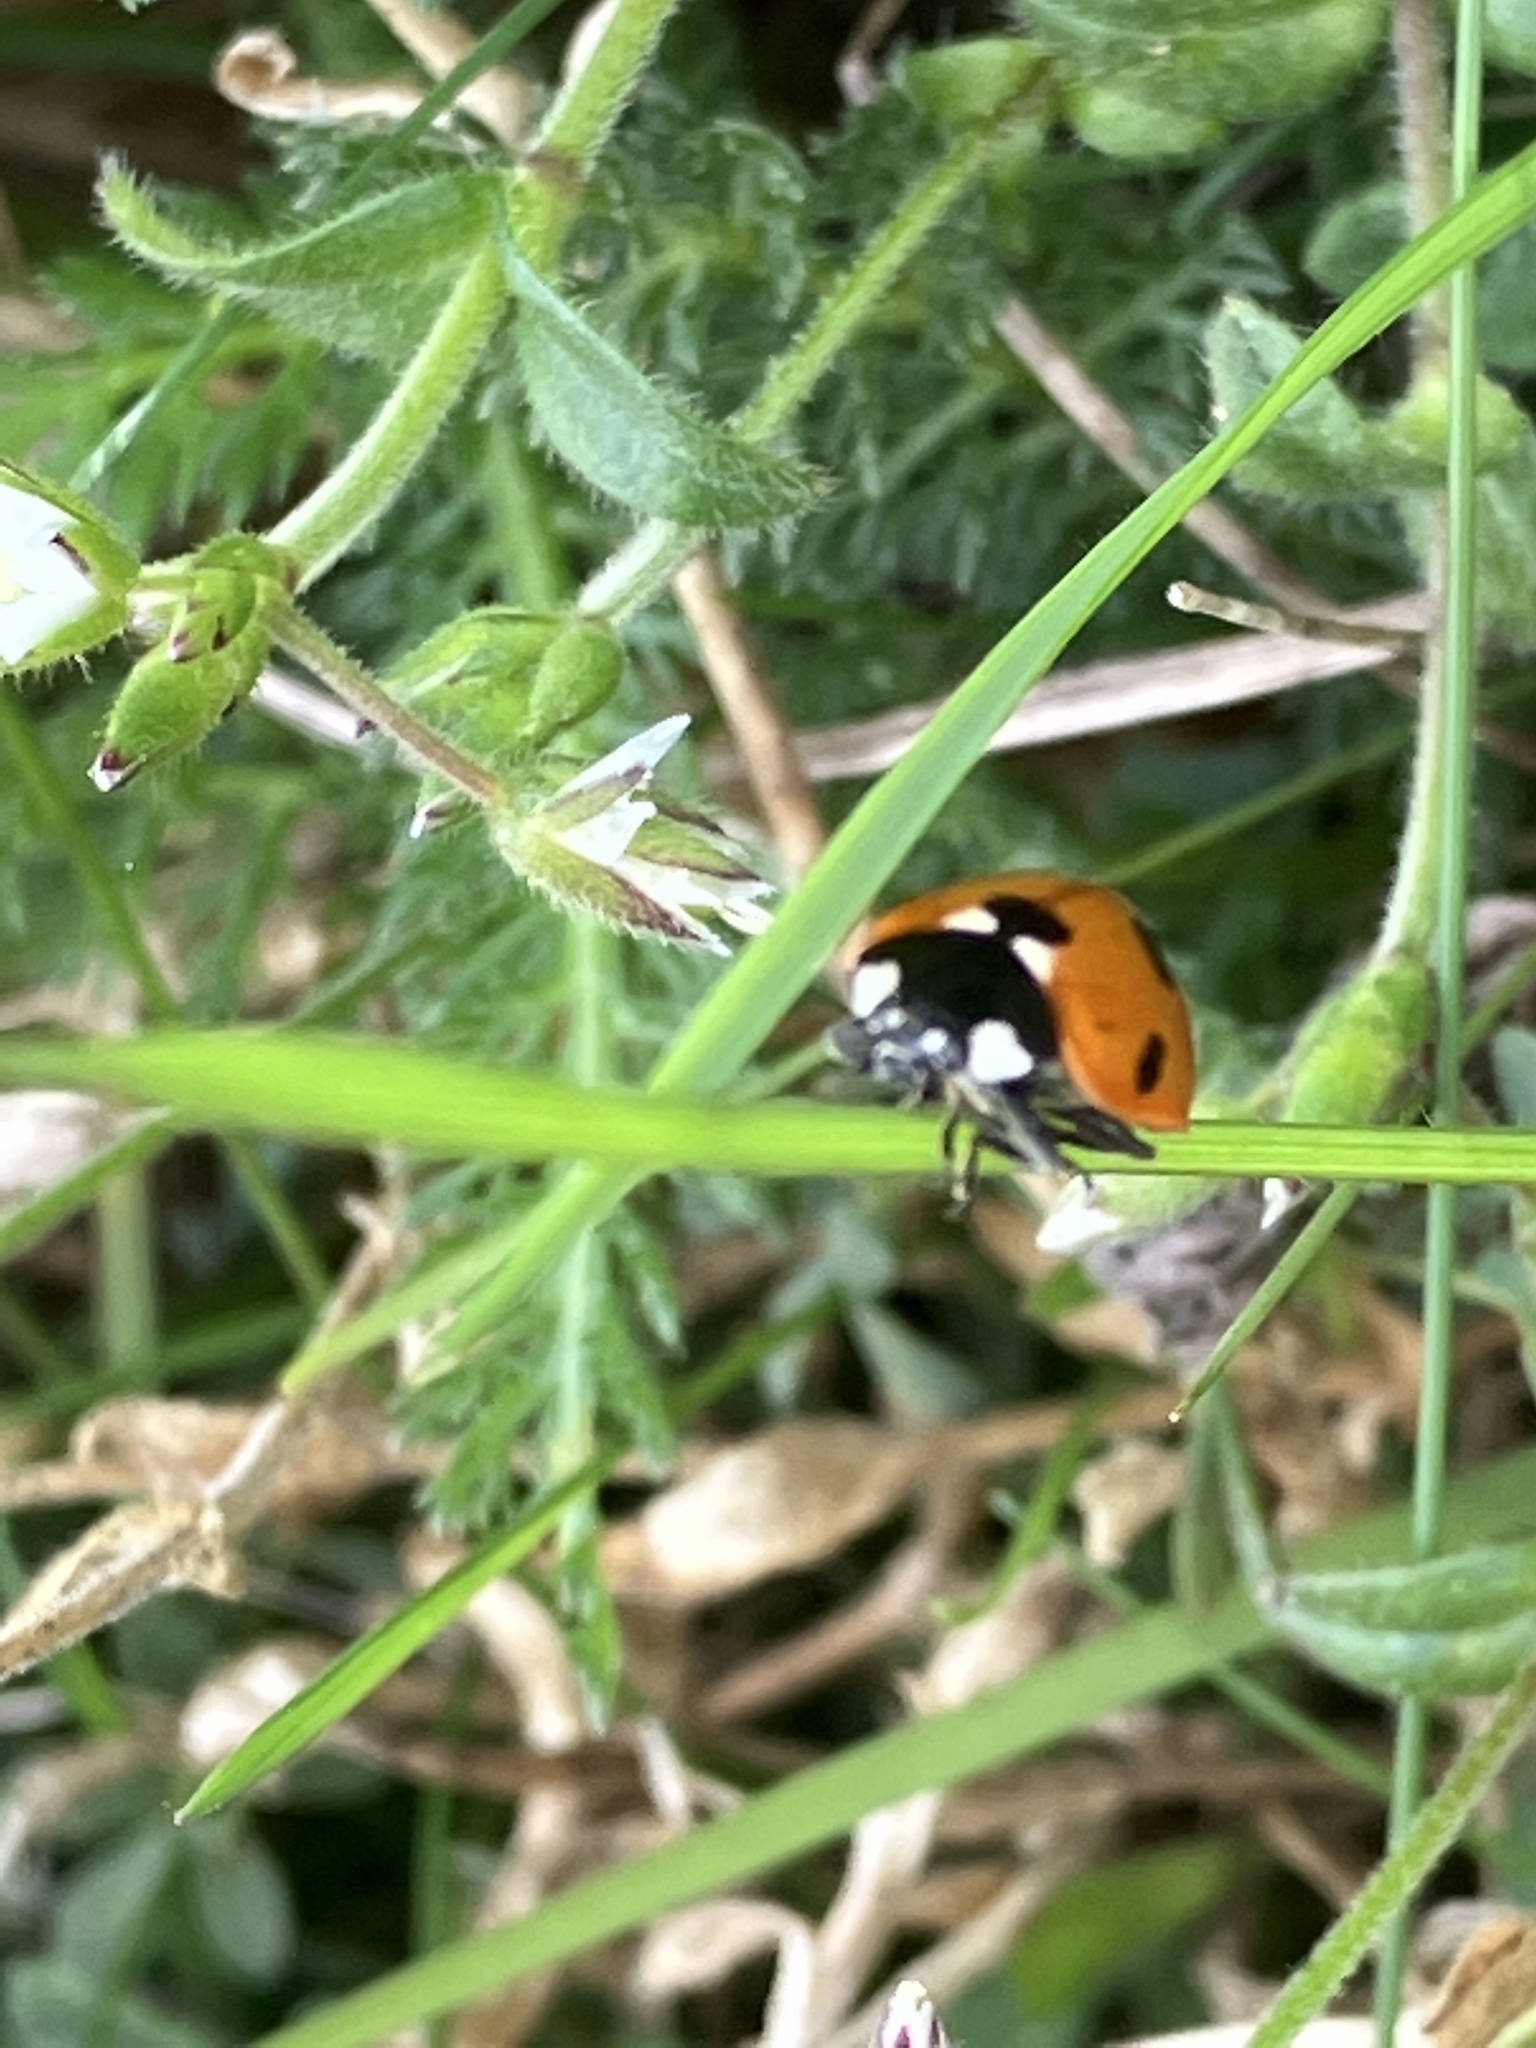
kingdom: Animalia
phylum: Arthropoda
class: Insecta
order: Coleoptera
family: Coccinellidae
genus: Coccinella
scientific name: Coccinella septempunctata
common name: Sevenspotted lady beetle
